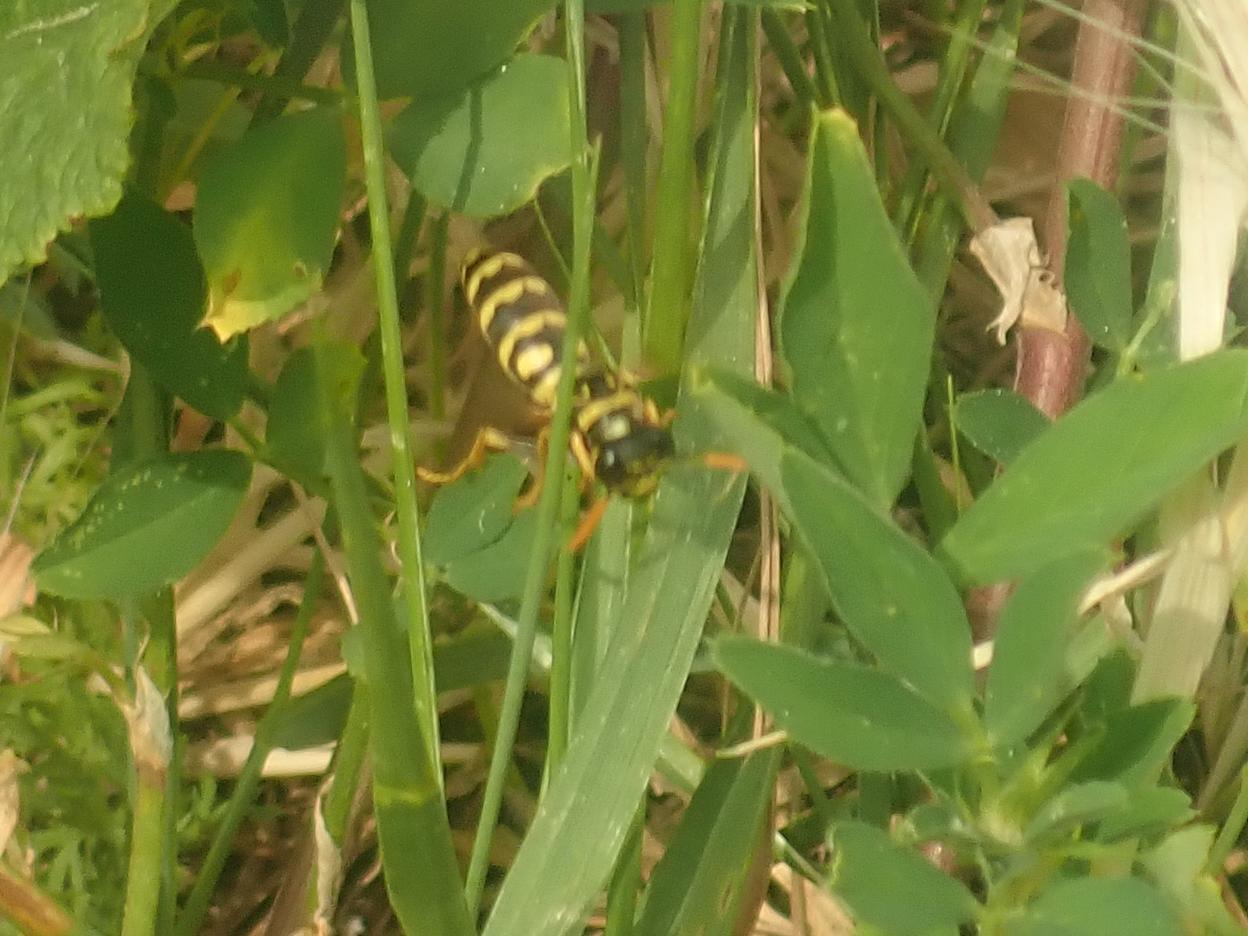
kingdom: Animalia
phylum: Arthropoda
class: Insecta
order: Hymenoptera
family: Eumenidae
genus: Polistes
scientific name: Polistes dominula
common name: Paper wasp
